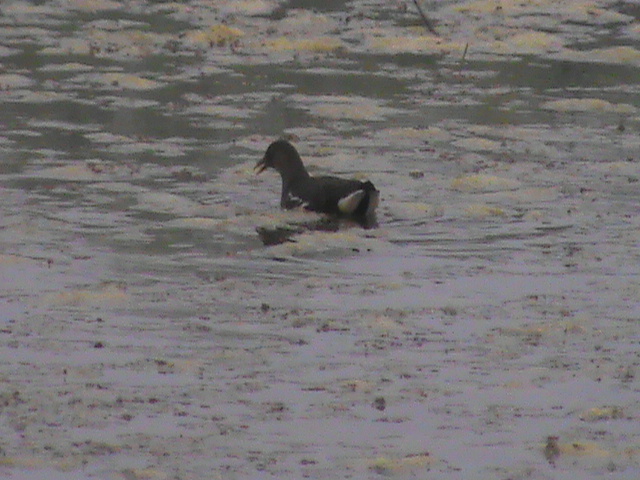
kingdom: Animalia
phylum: Chordata
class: Aves
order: Gruiformes
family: Rallidae
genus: Gallinula
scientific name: Gallinula chloropus
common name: Common moorhen
